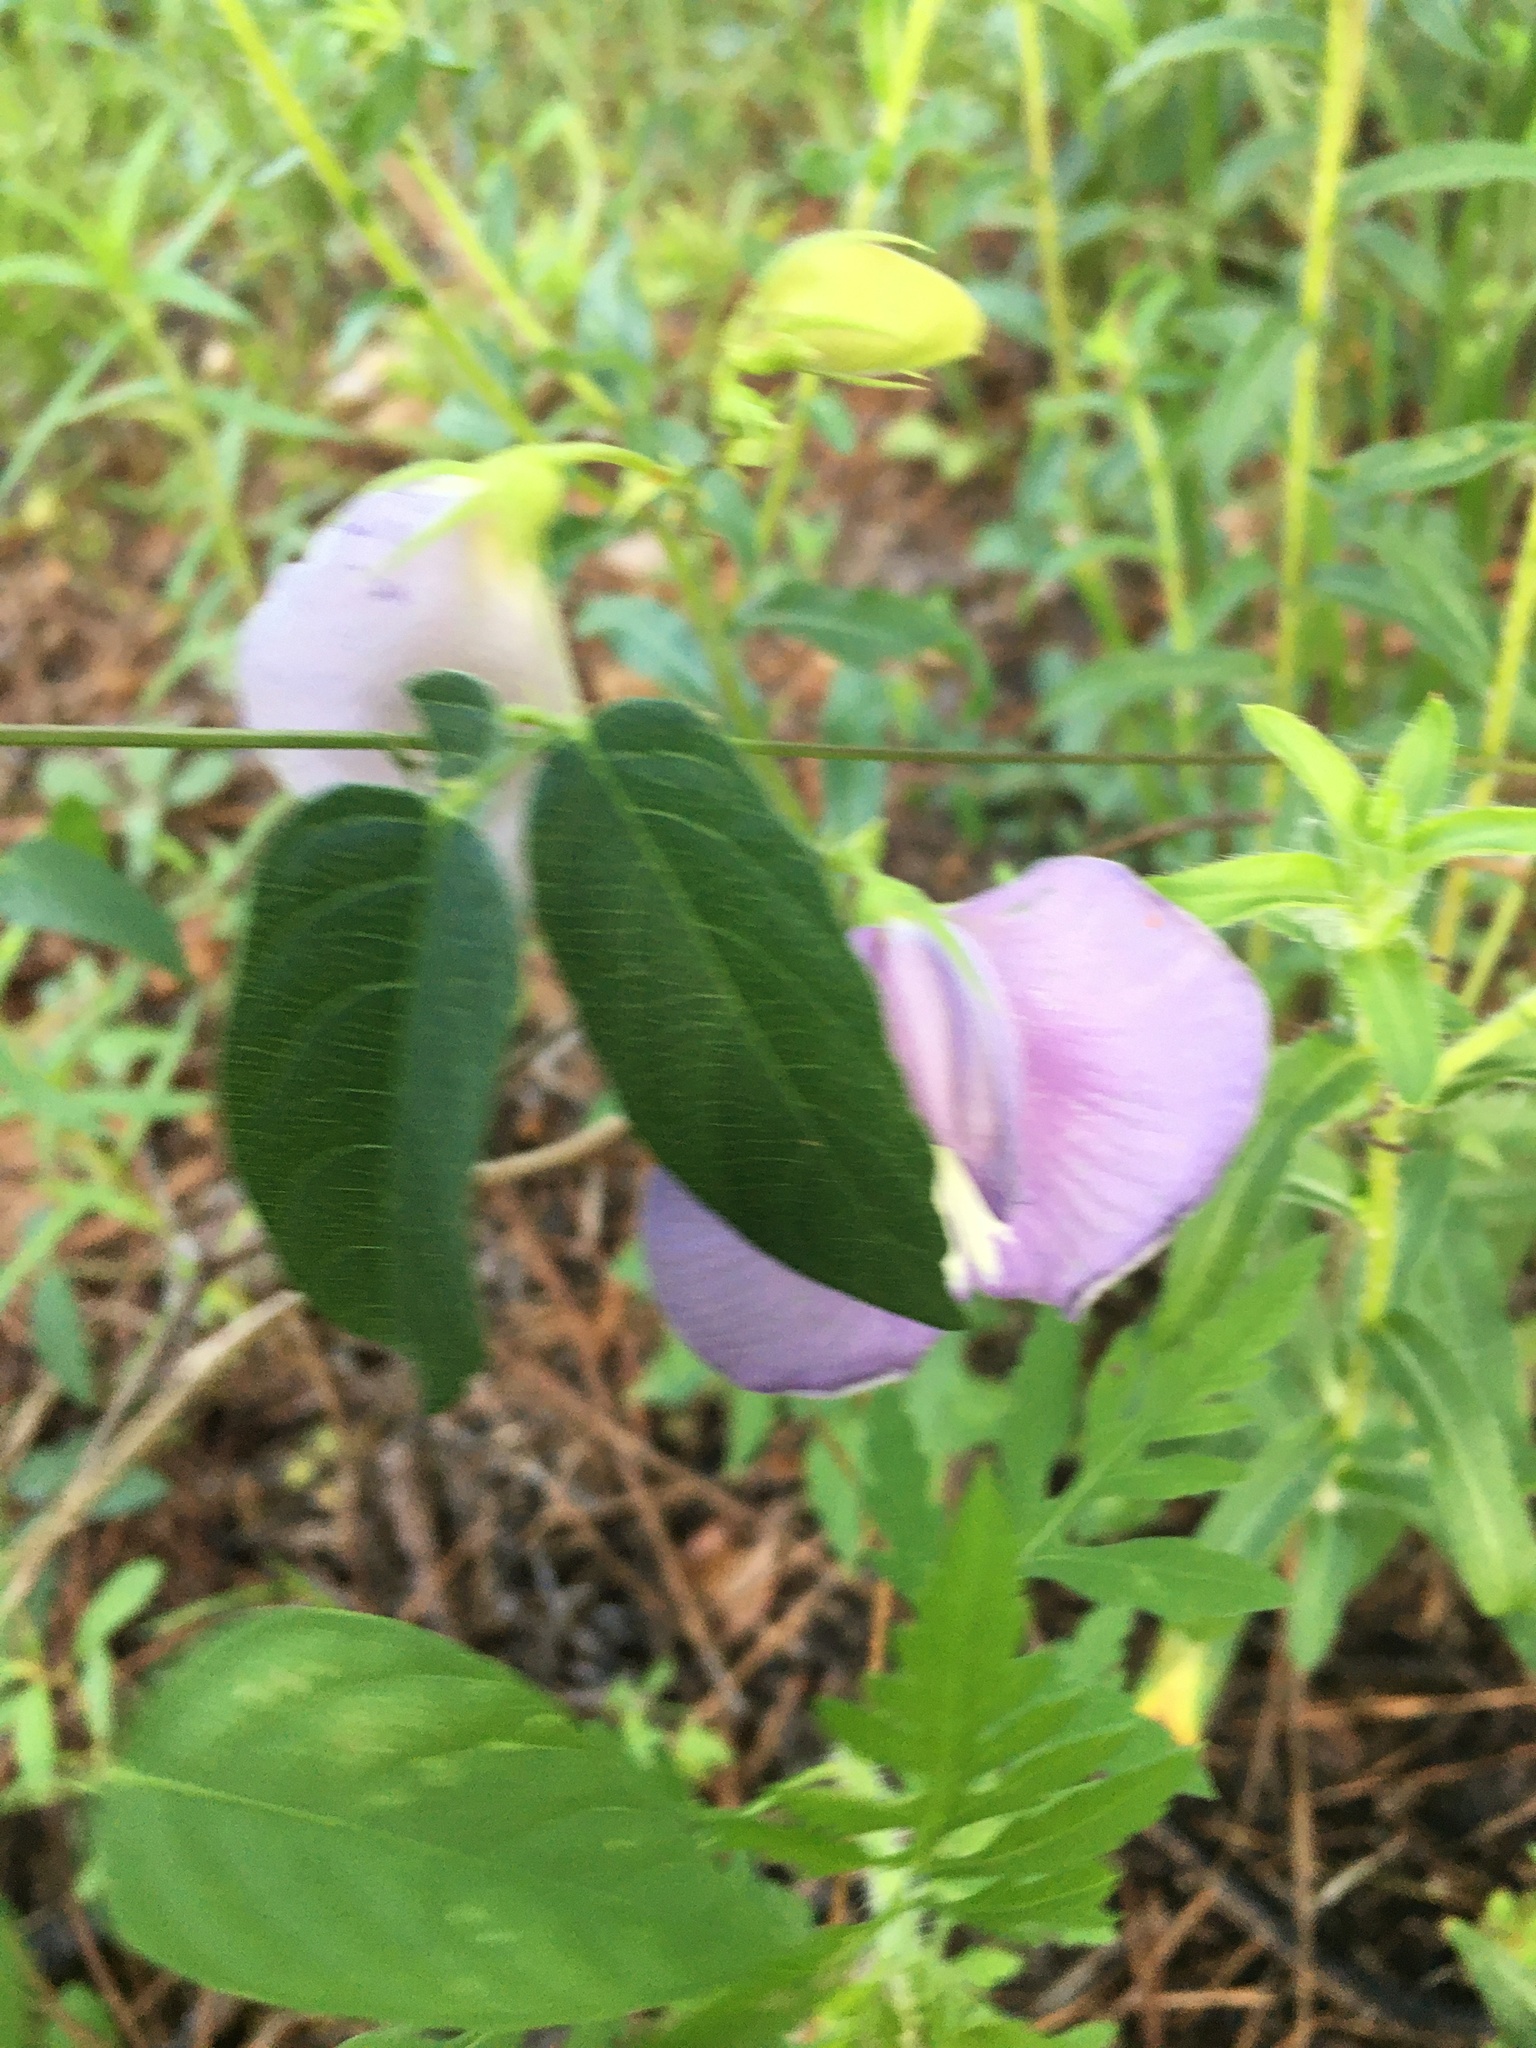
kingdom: Plantae
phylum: Tracheophyta
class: Magnoliopsida
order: Fabales
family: Fabaceae
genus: Centrosema
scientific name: Centrosema virginianum
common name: Butterfly-pea
